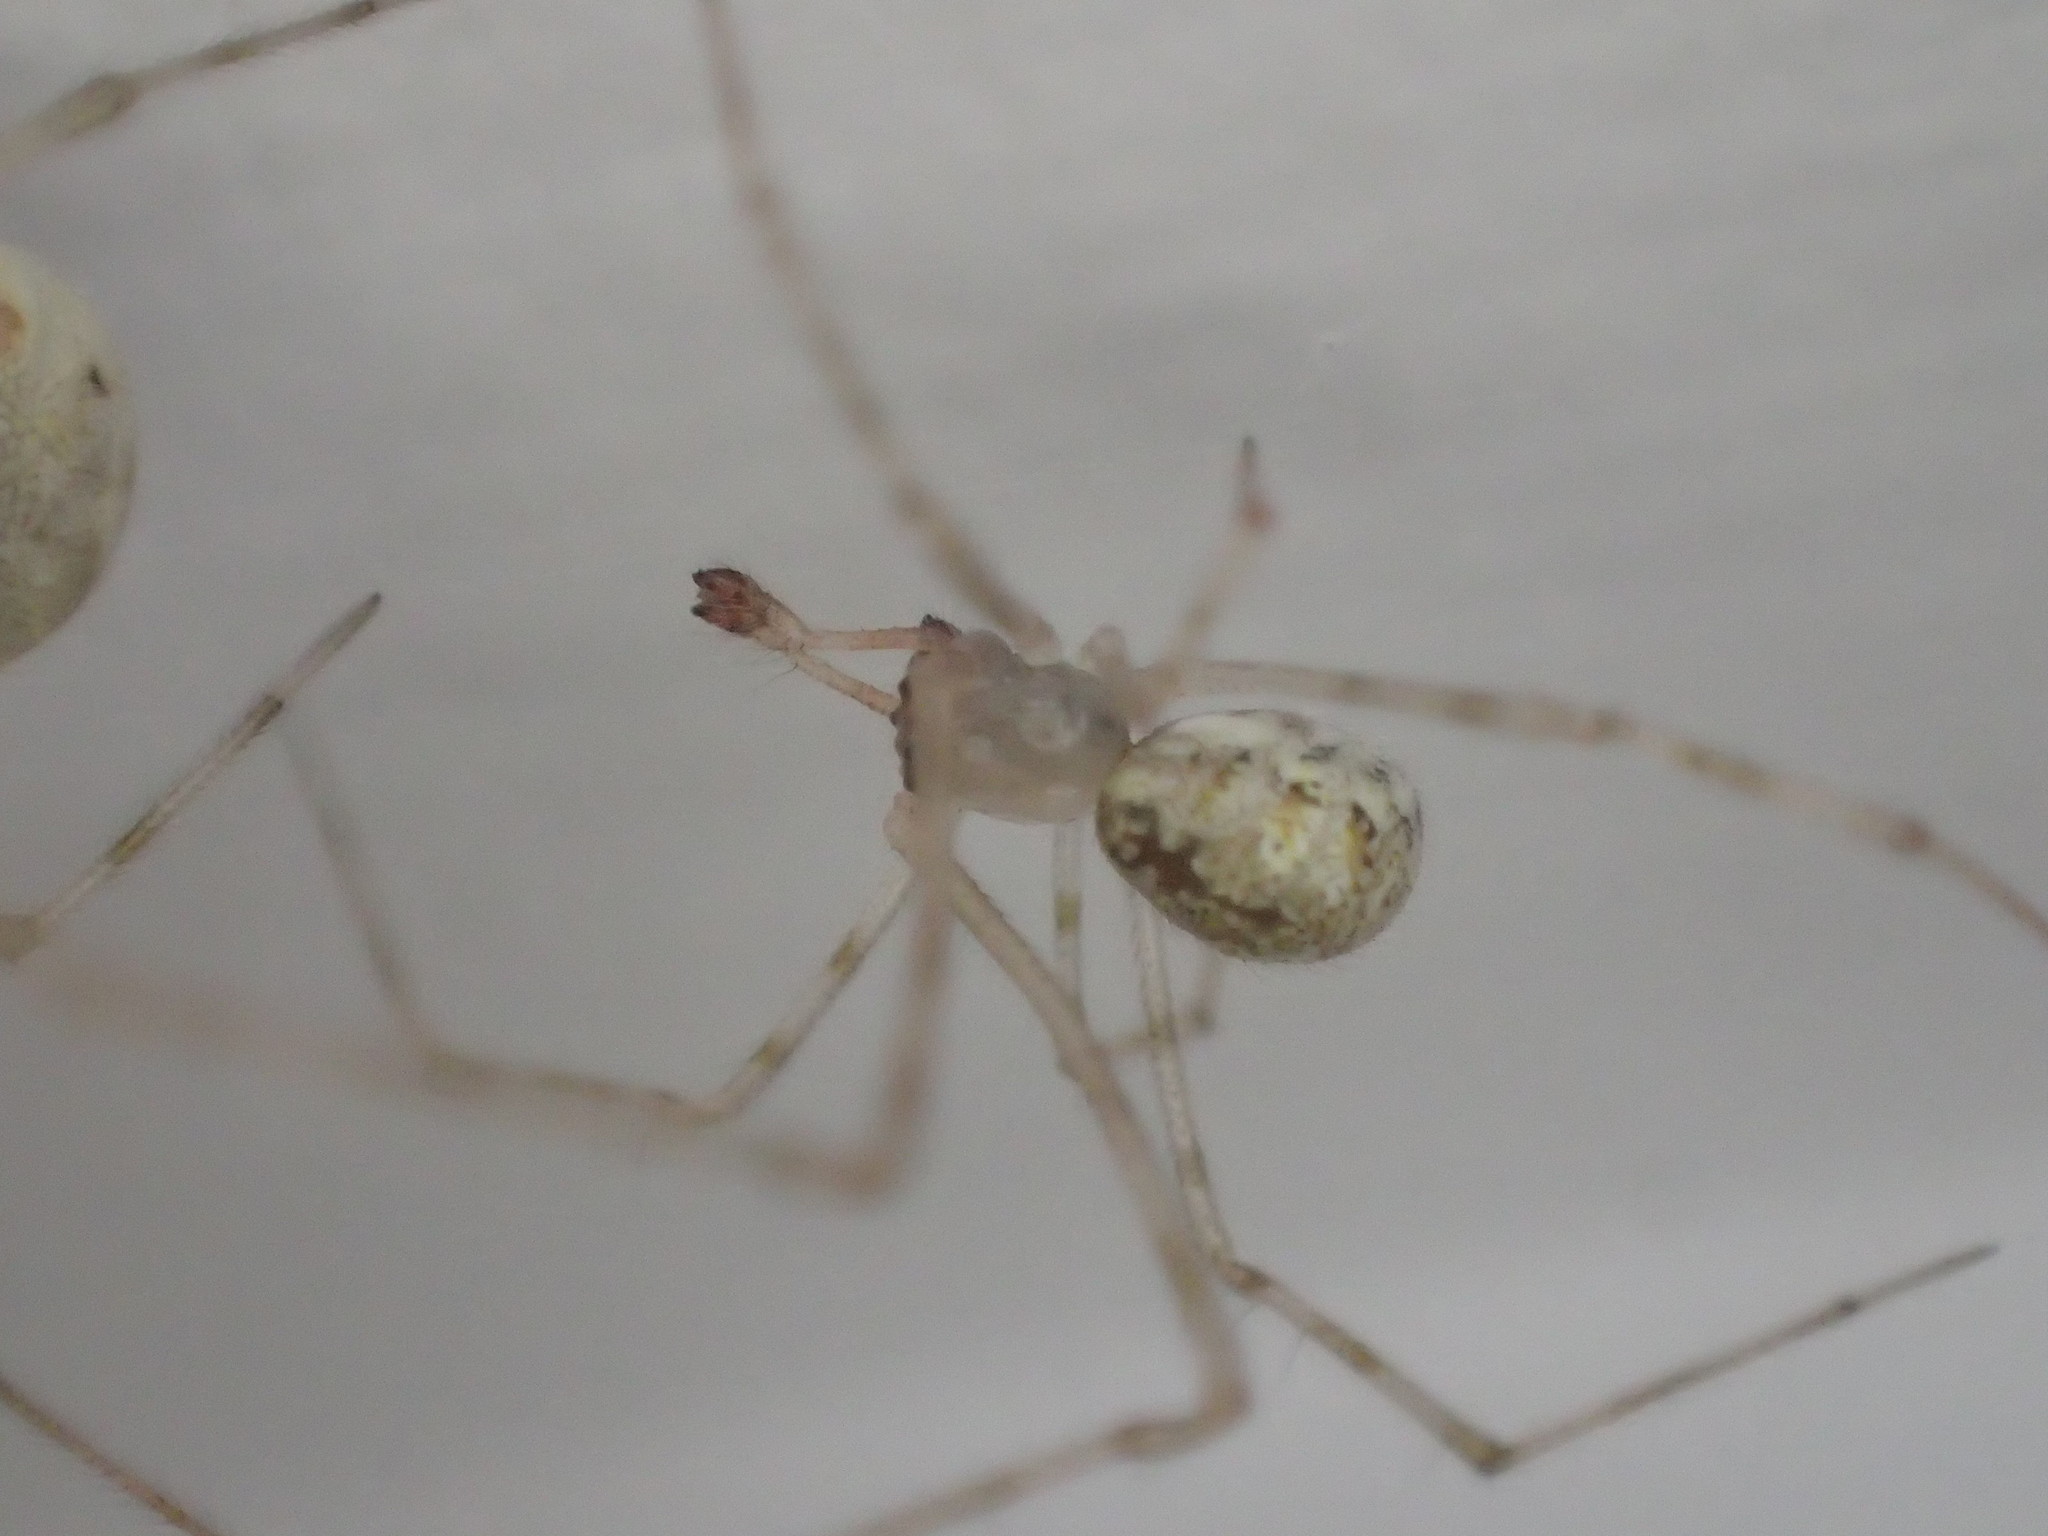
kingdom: Animalia
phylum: Arthropoda
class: Arachnida
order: Araneae
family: Theridiidae
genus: Cryptachaea
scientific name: Cryptachaea gigantipes
